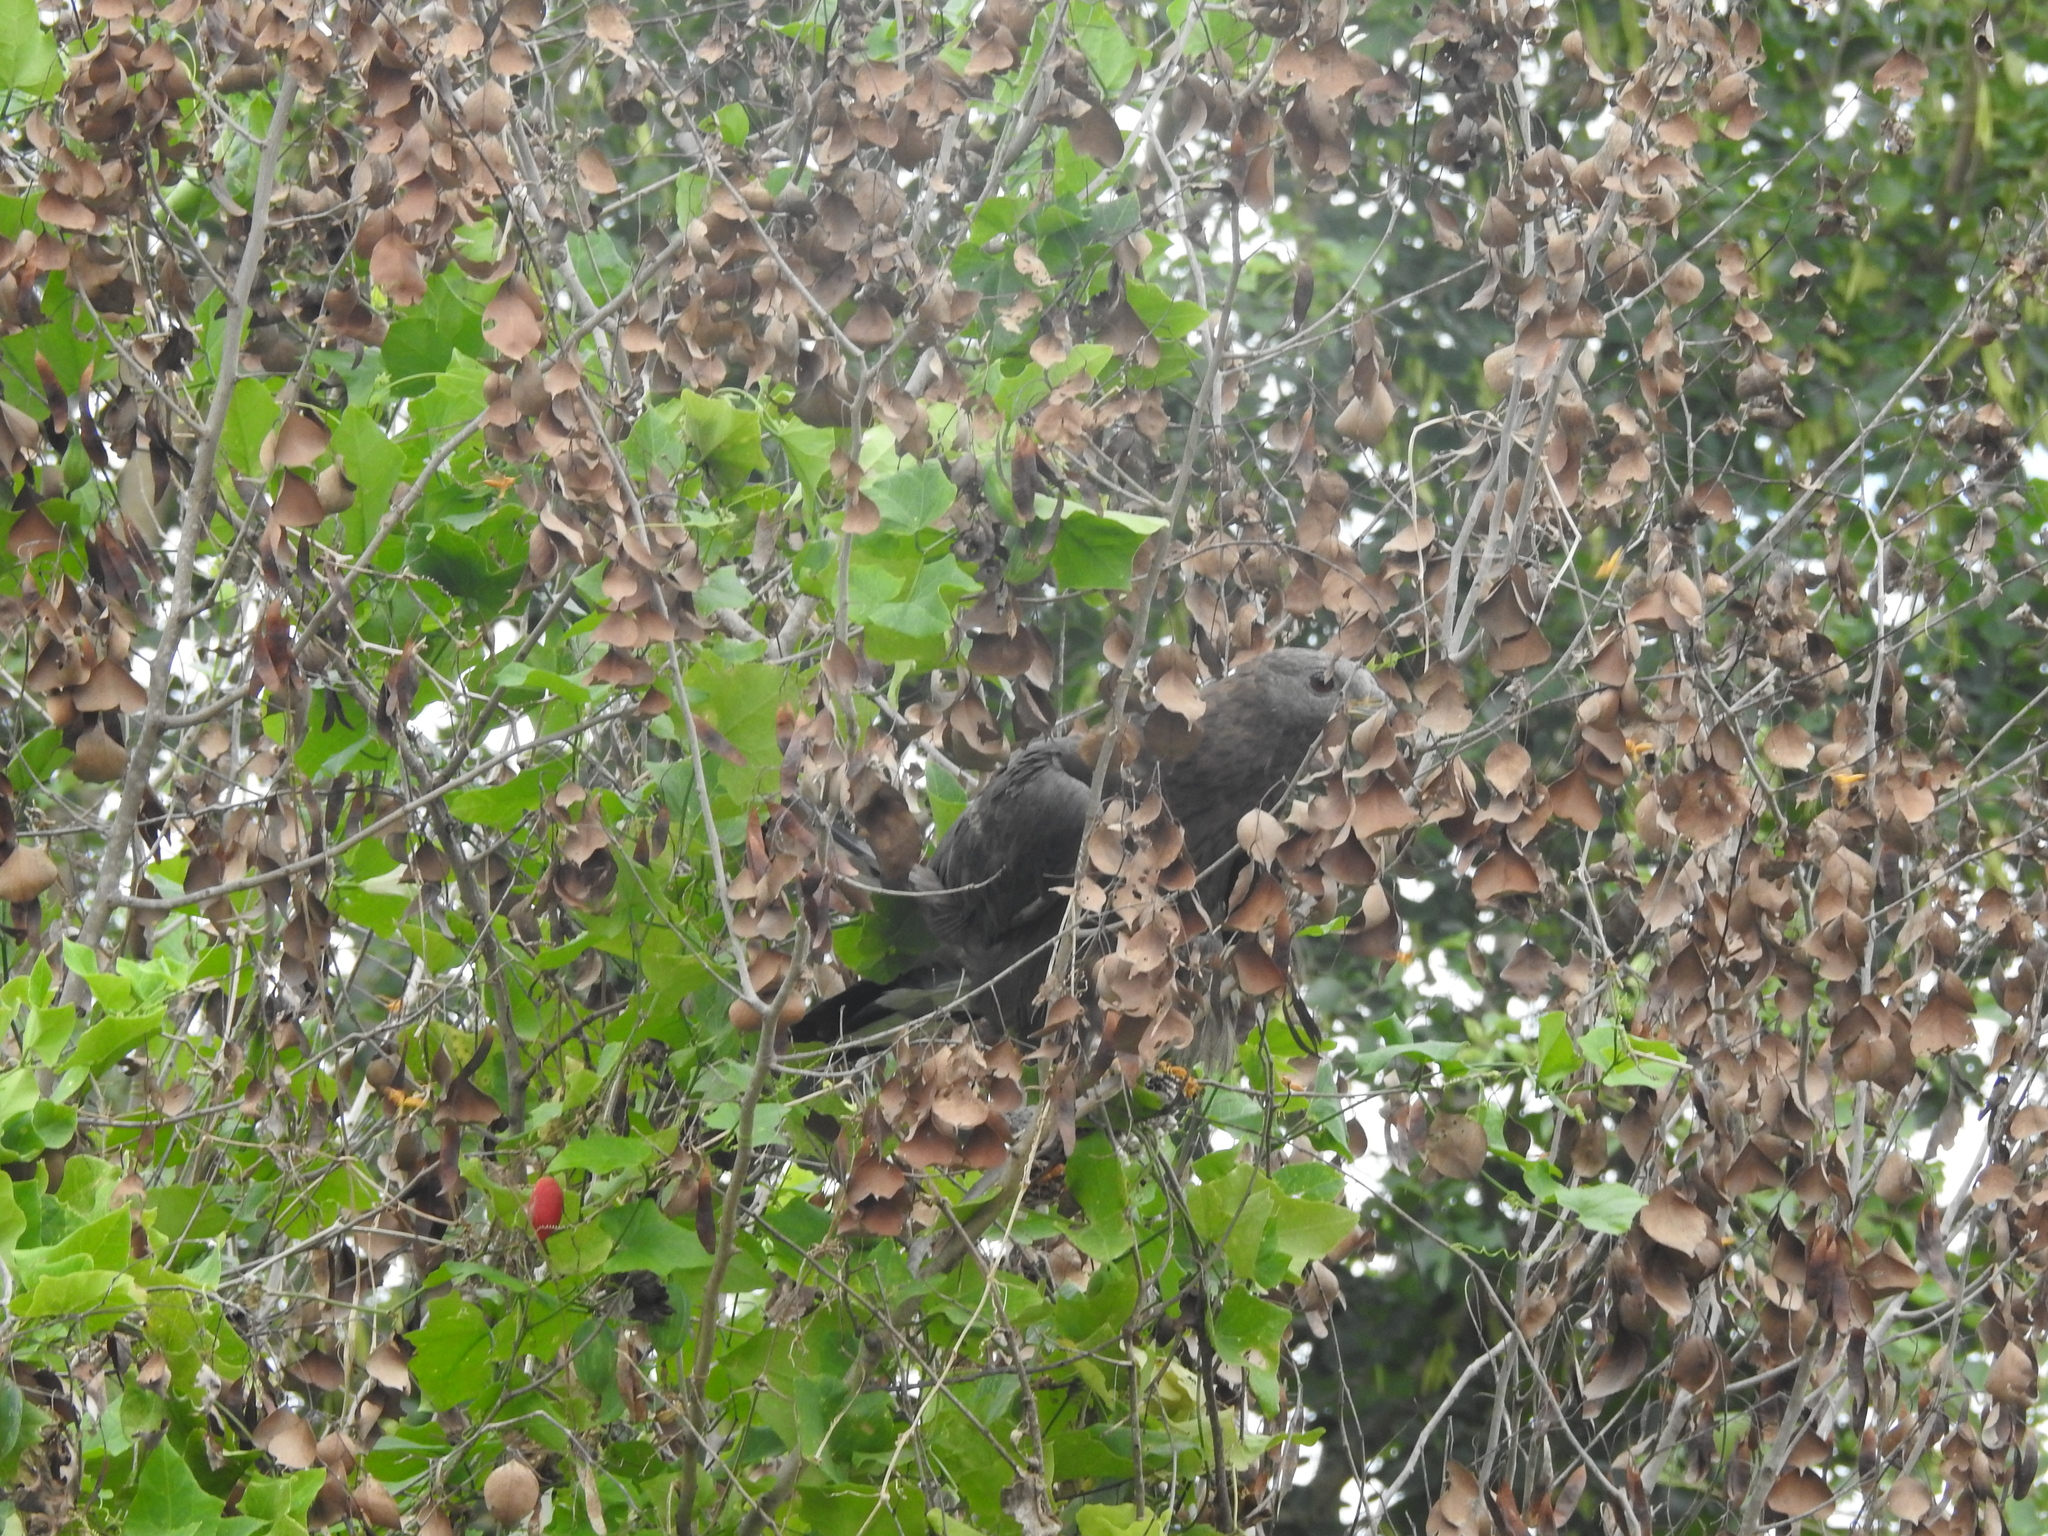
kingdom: Animalia
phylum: Chordata
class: Aves
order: Accipitriformes
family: Accipitridae
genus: Pernis
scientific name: Pernis ptilorhynchus
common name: Crested honey buzzard
